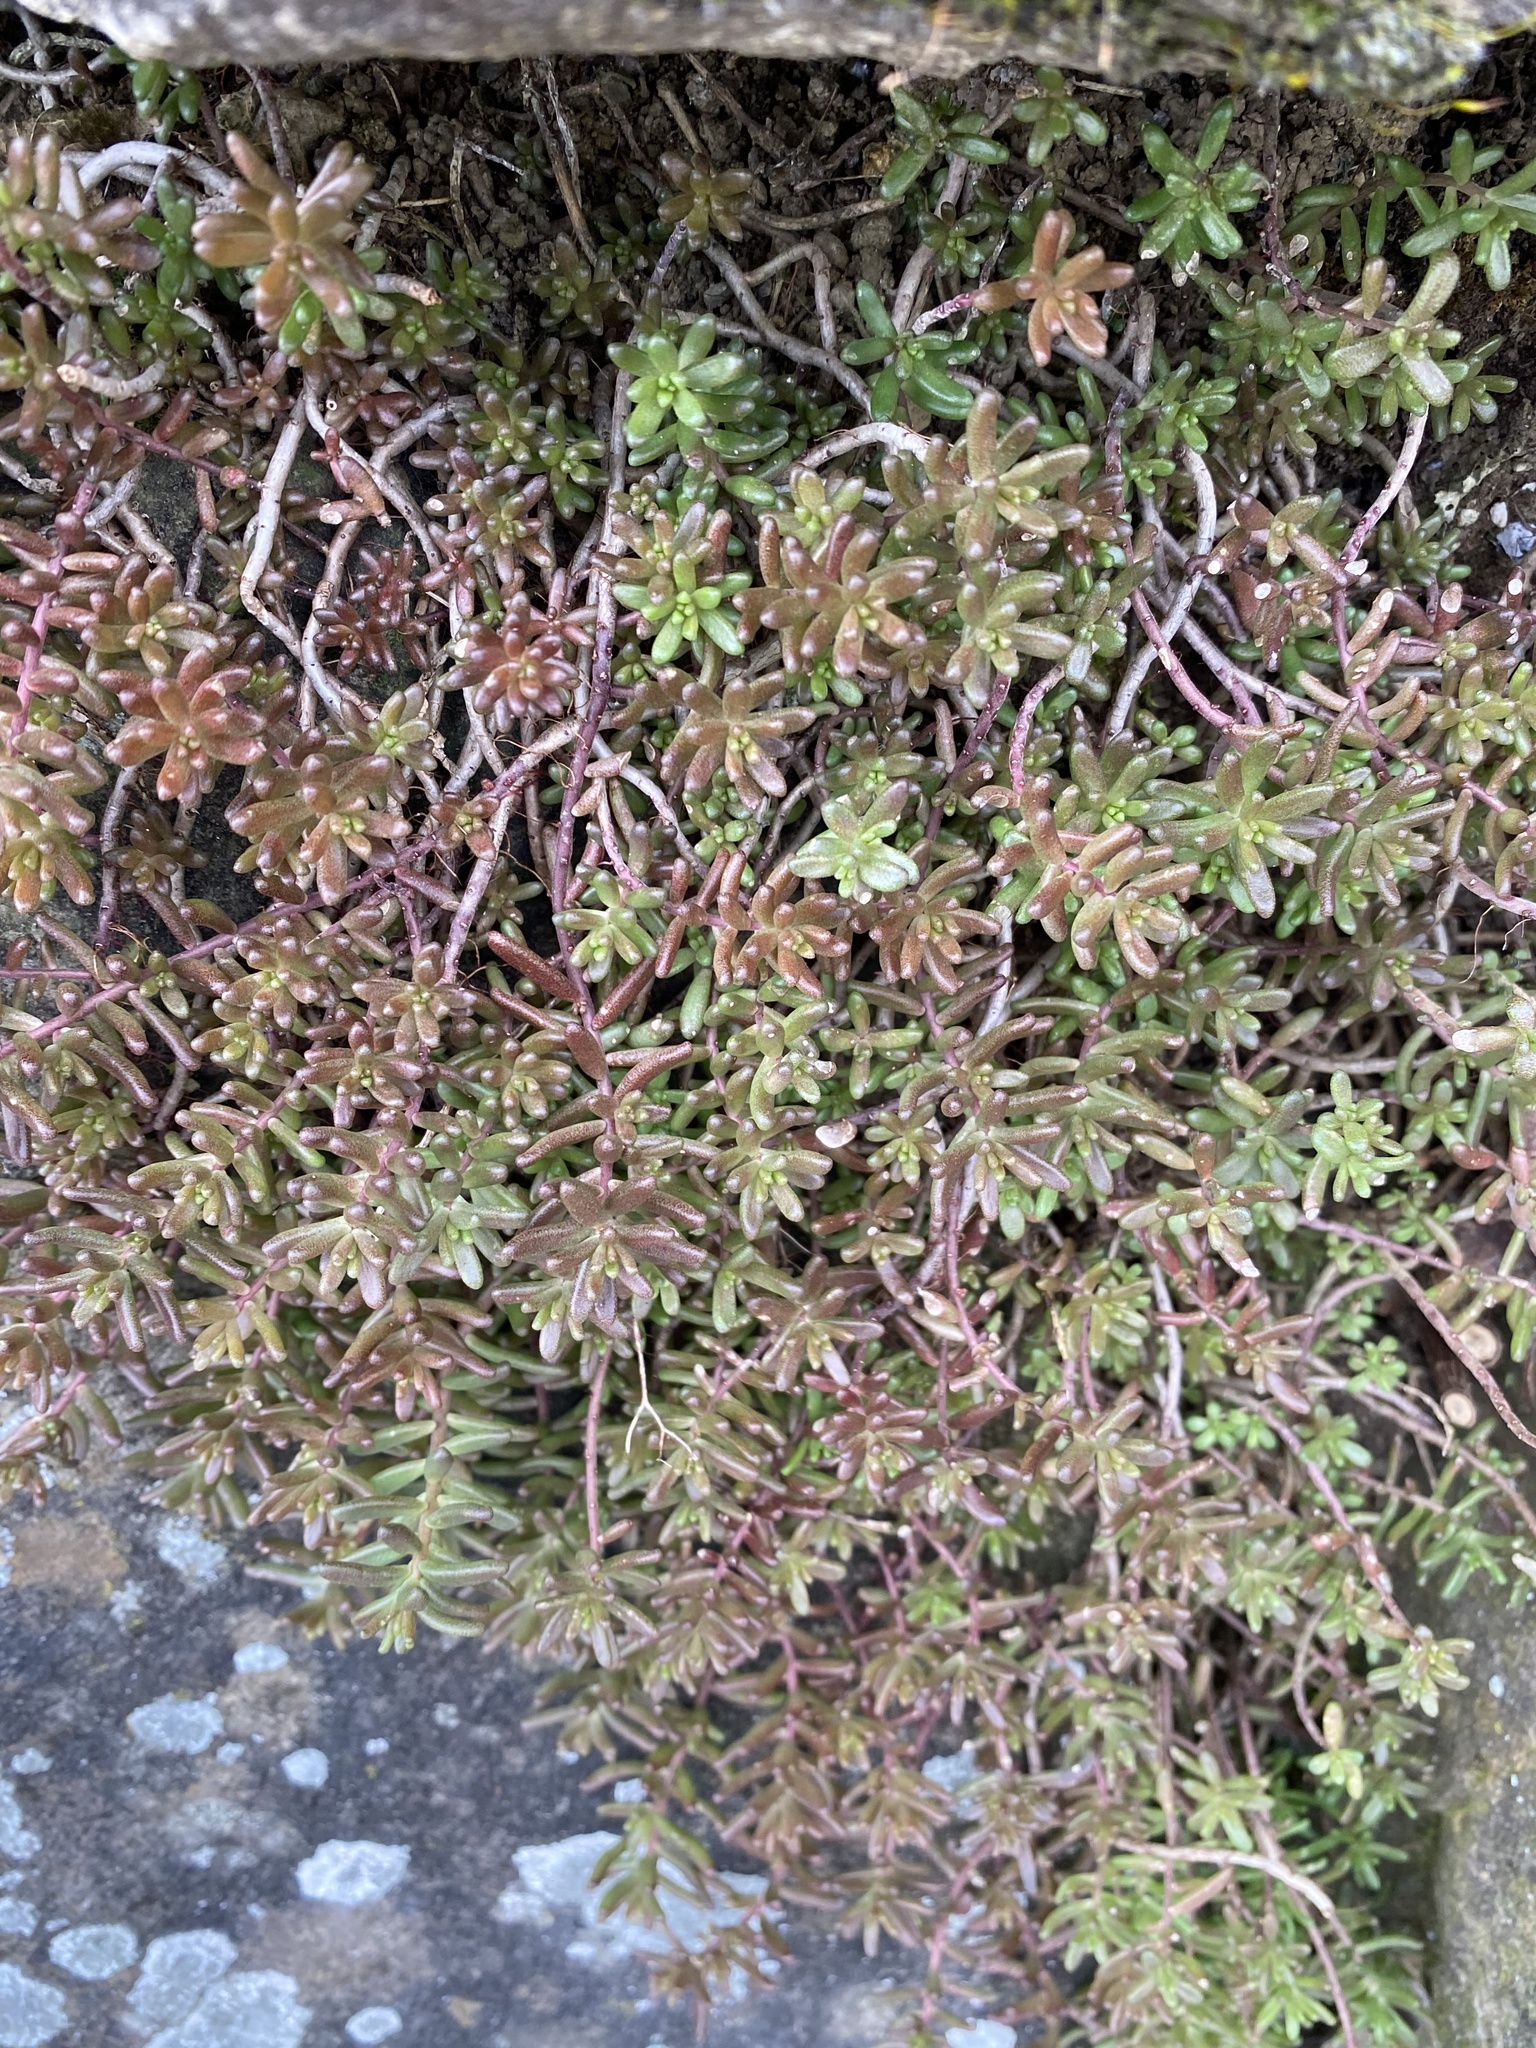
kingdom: Plantae
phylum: Tracheophyta
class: Magnoliopsida
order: Saxifragales
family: Crassulaceae
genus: Sedum
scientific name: Sedum album
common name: White stonecrop
